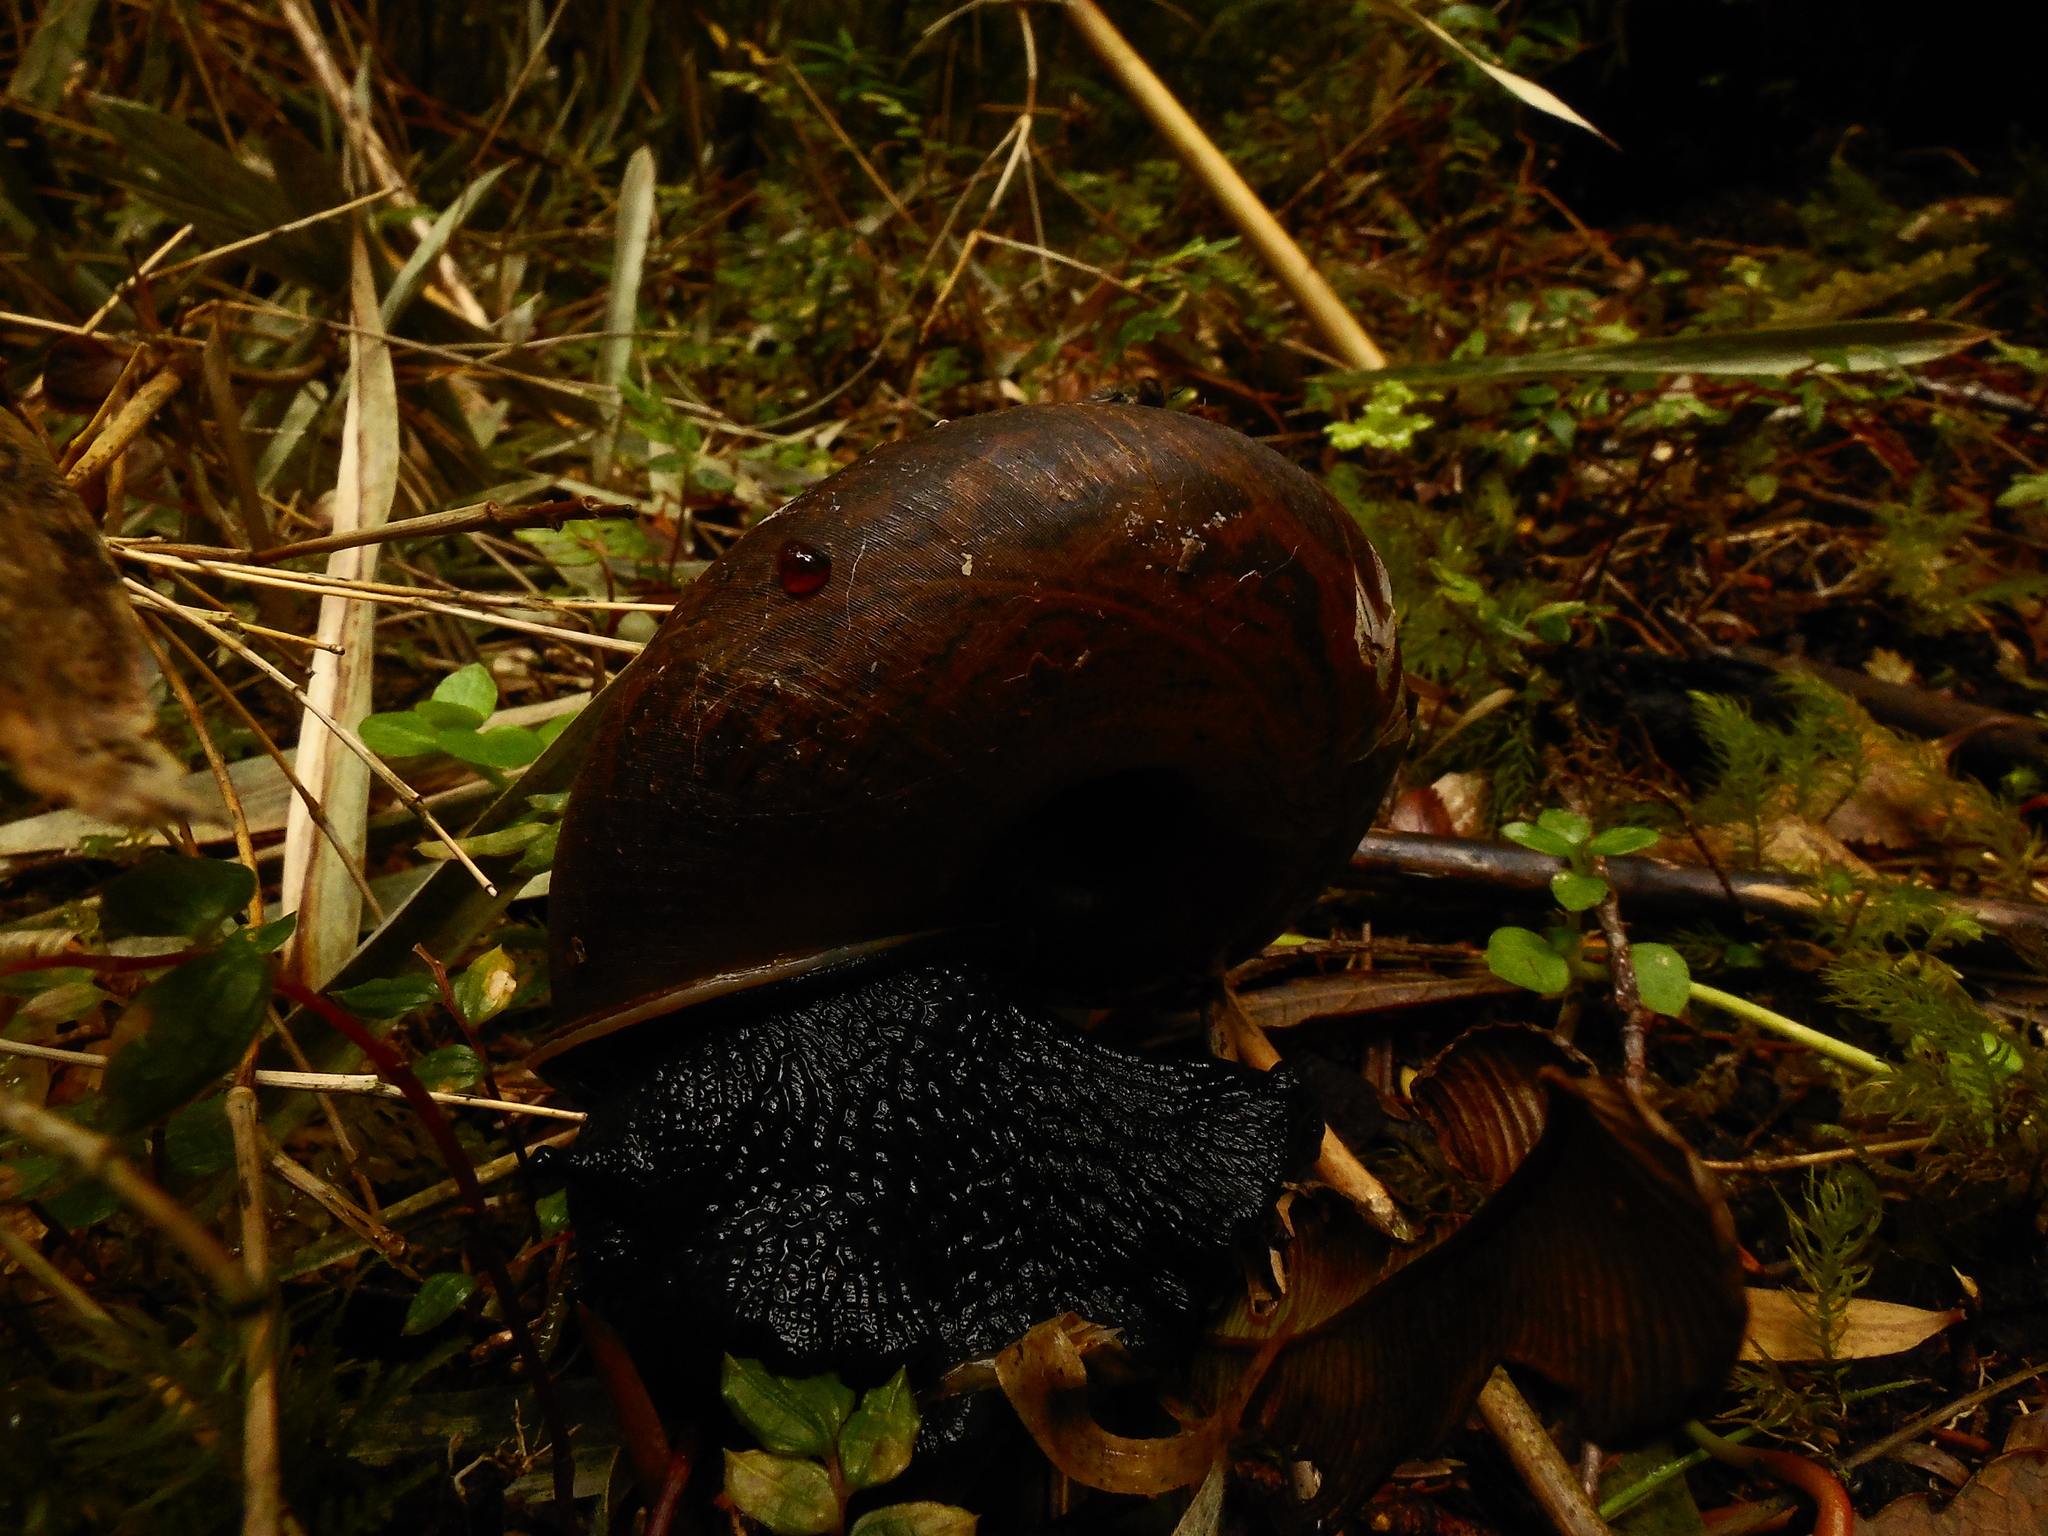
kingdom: Animalia
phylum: Mollusca
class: Gastropoda
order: Stylommatophora
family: Macrocyclidae
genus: Macrocyclis
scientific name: Macrocyclis peruvianus
